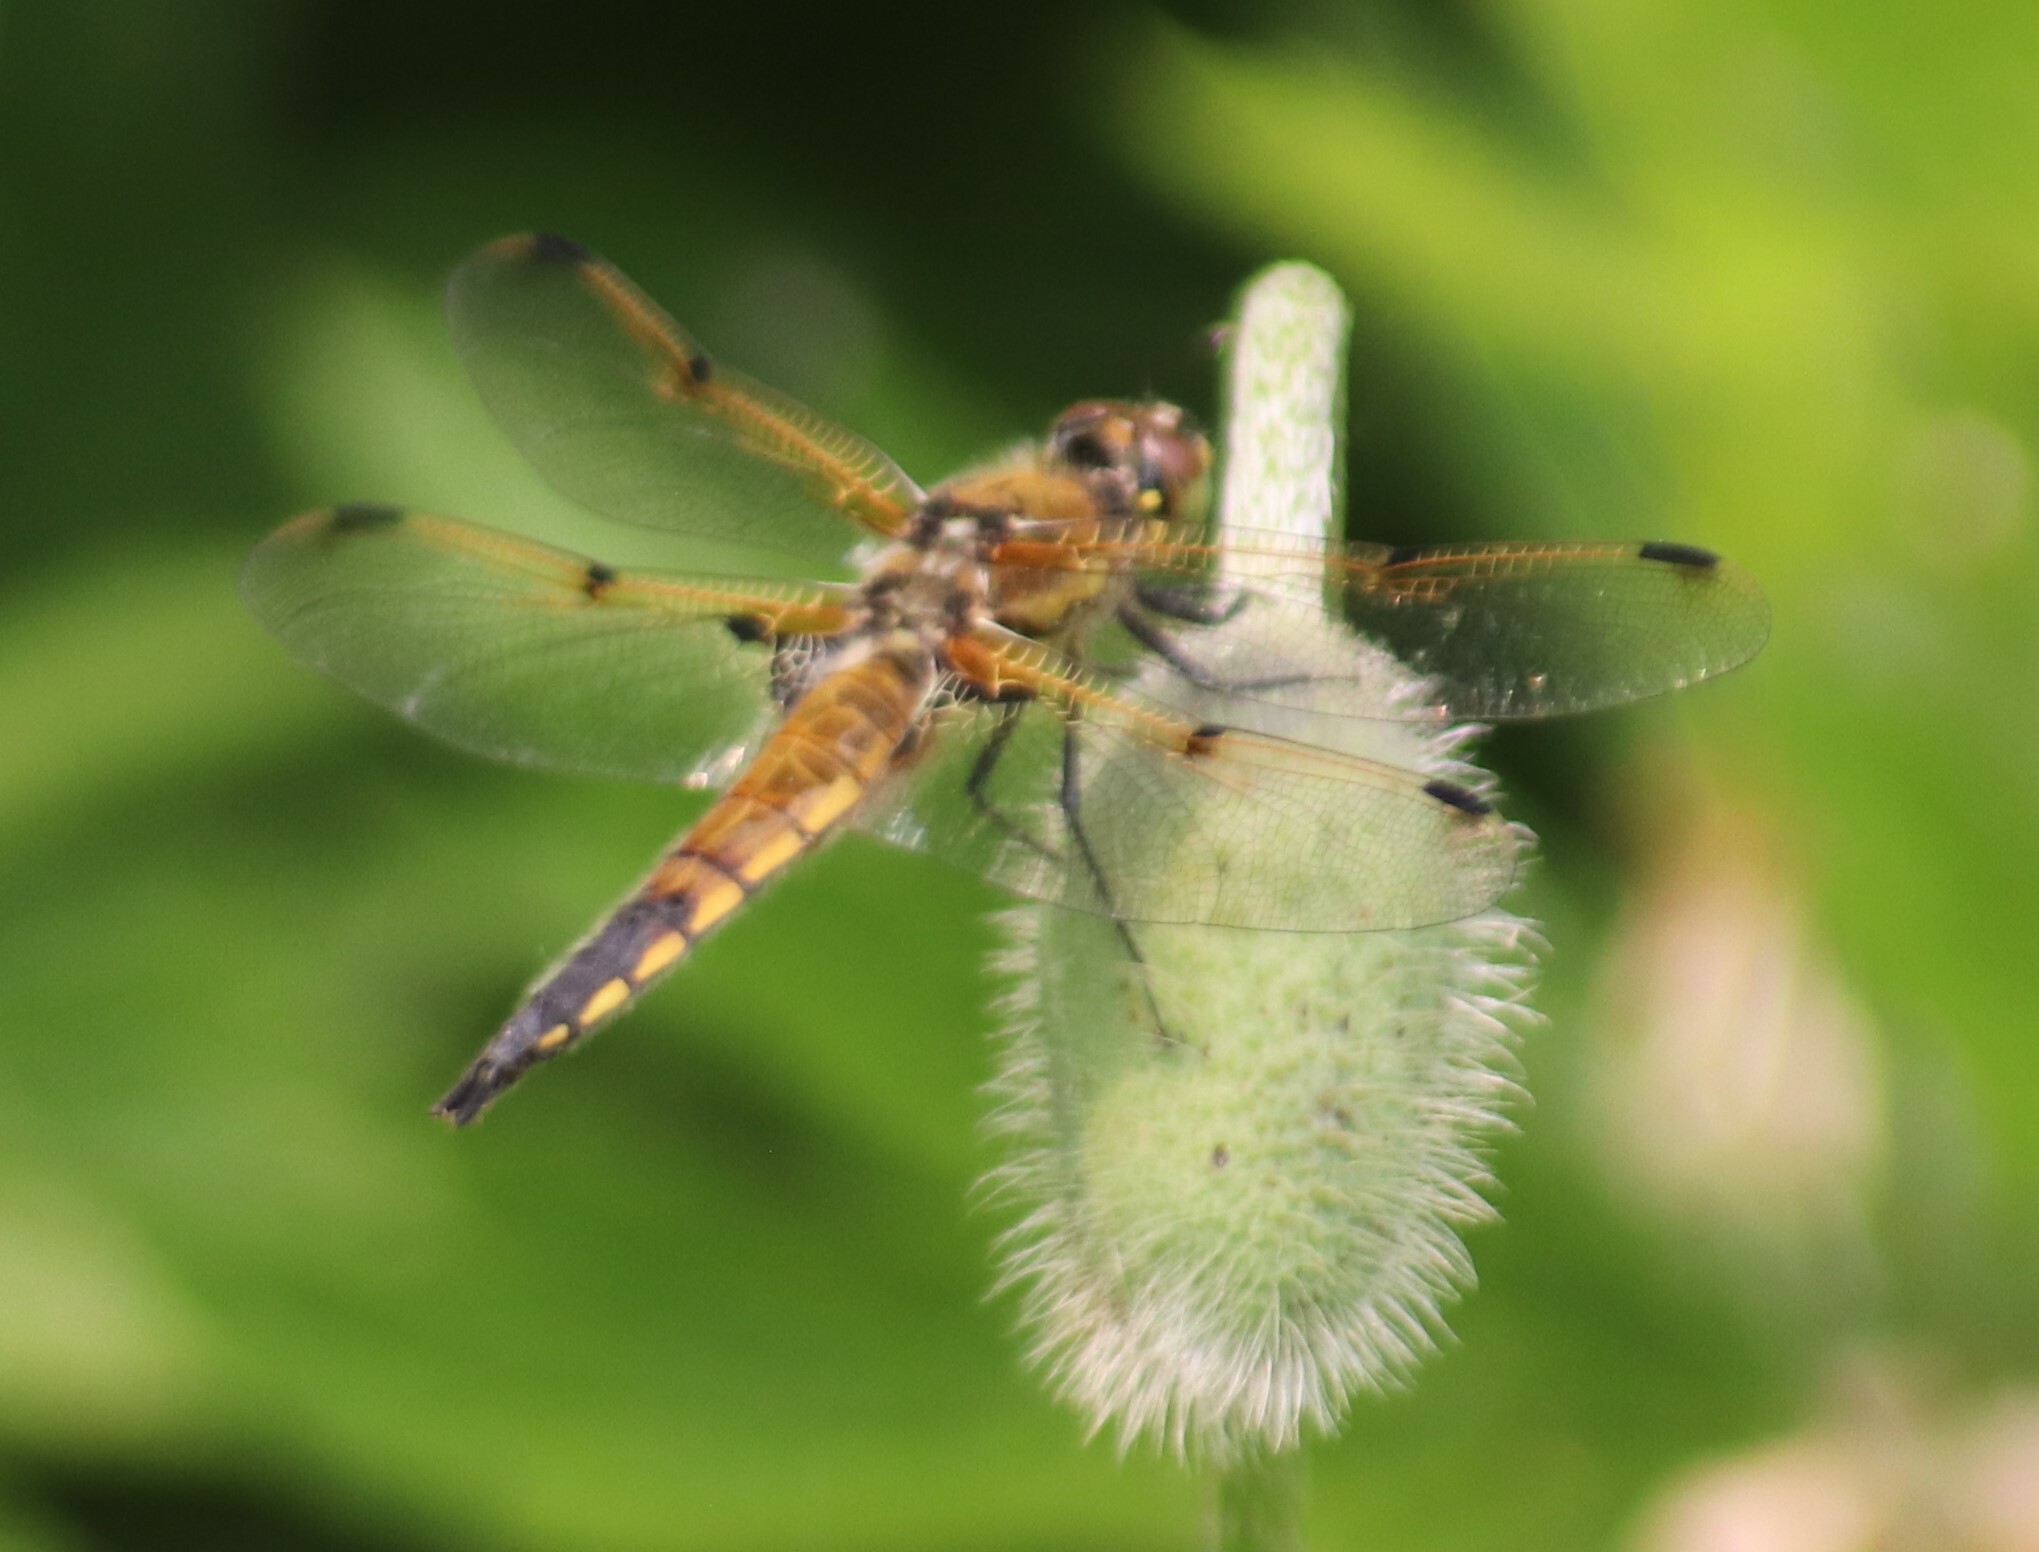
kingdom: Animalia
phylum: Arthropoda
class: Insecta
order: Odonata
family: Libellulidae
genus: Libellula
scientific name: Libellula quadrimaculata
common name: Four-spotted chaser
